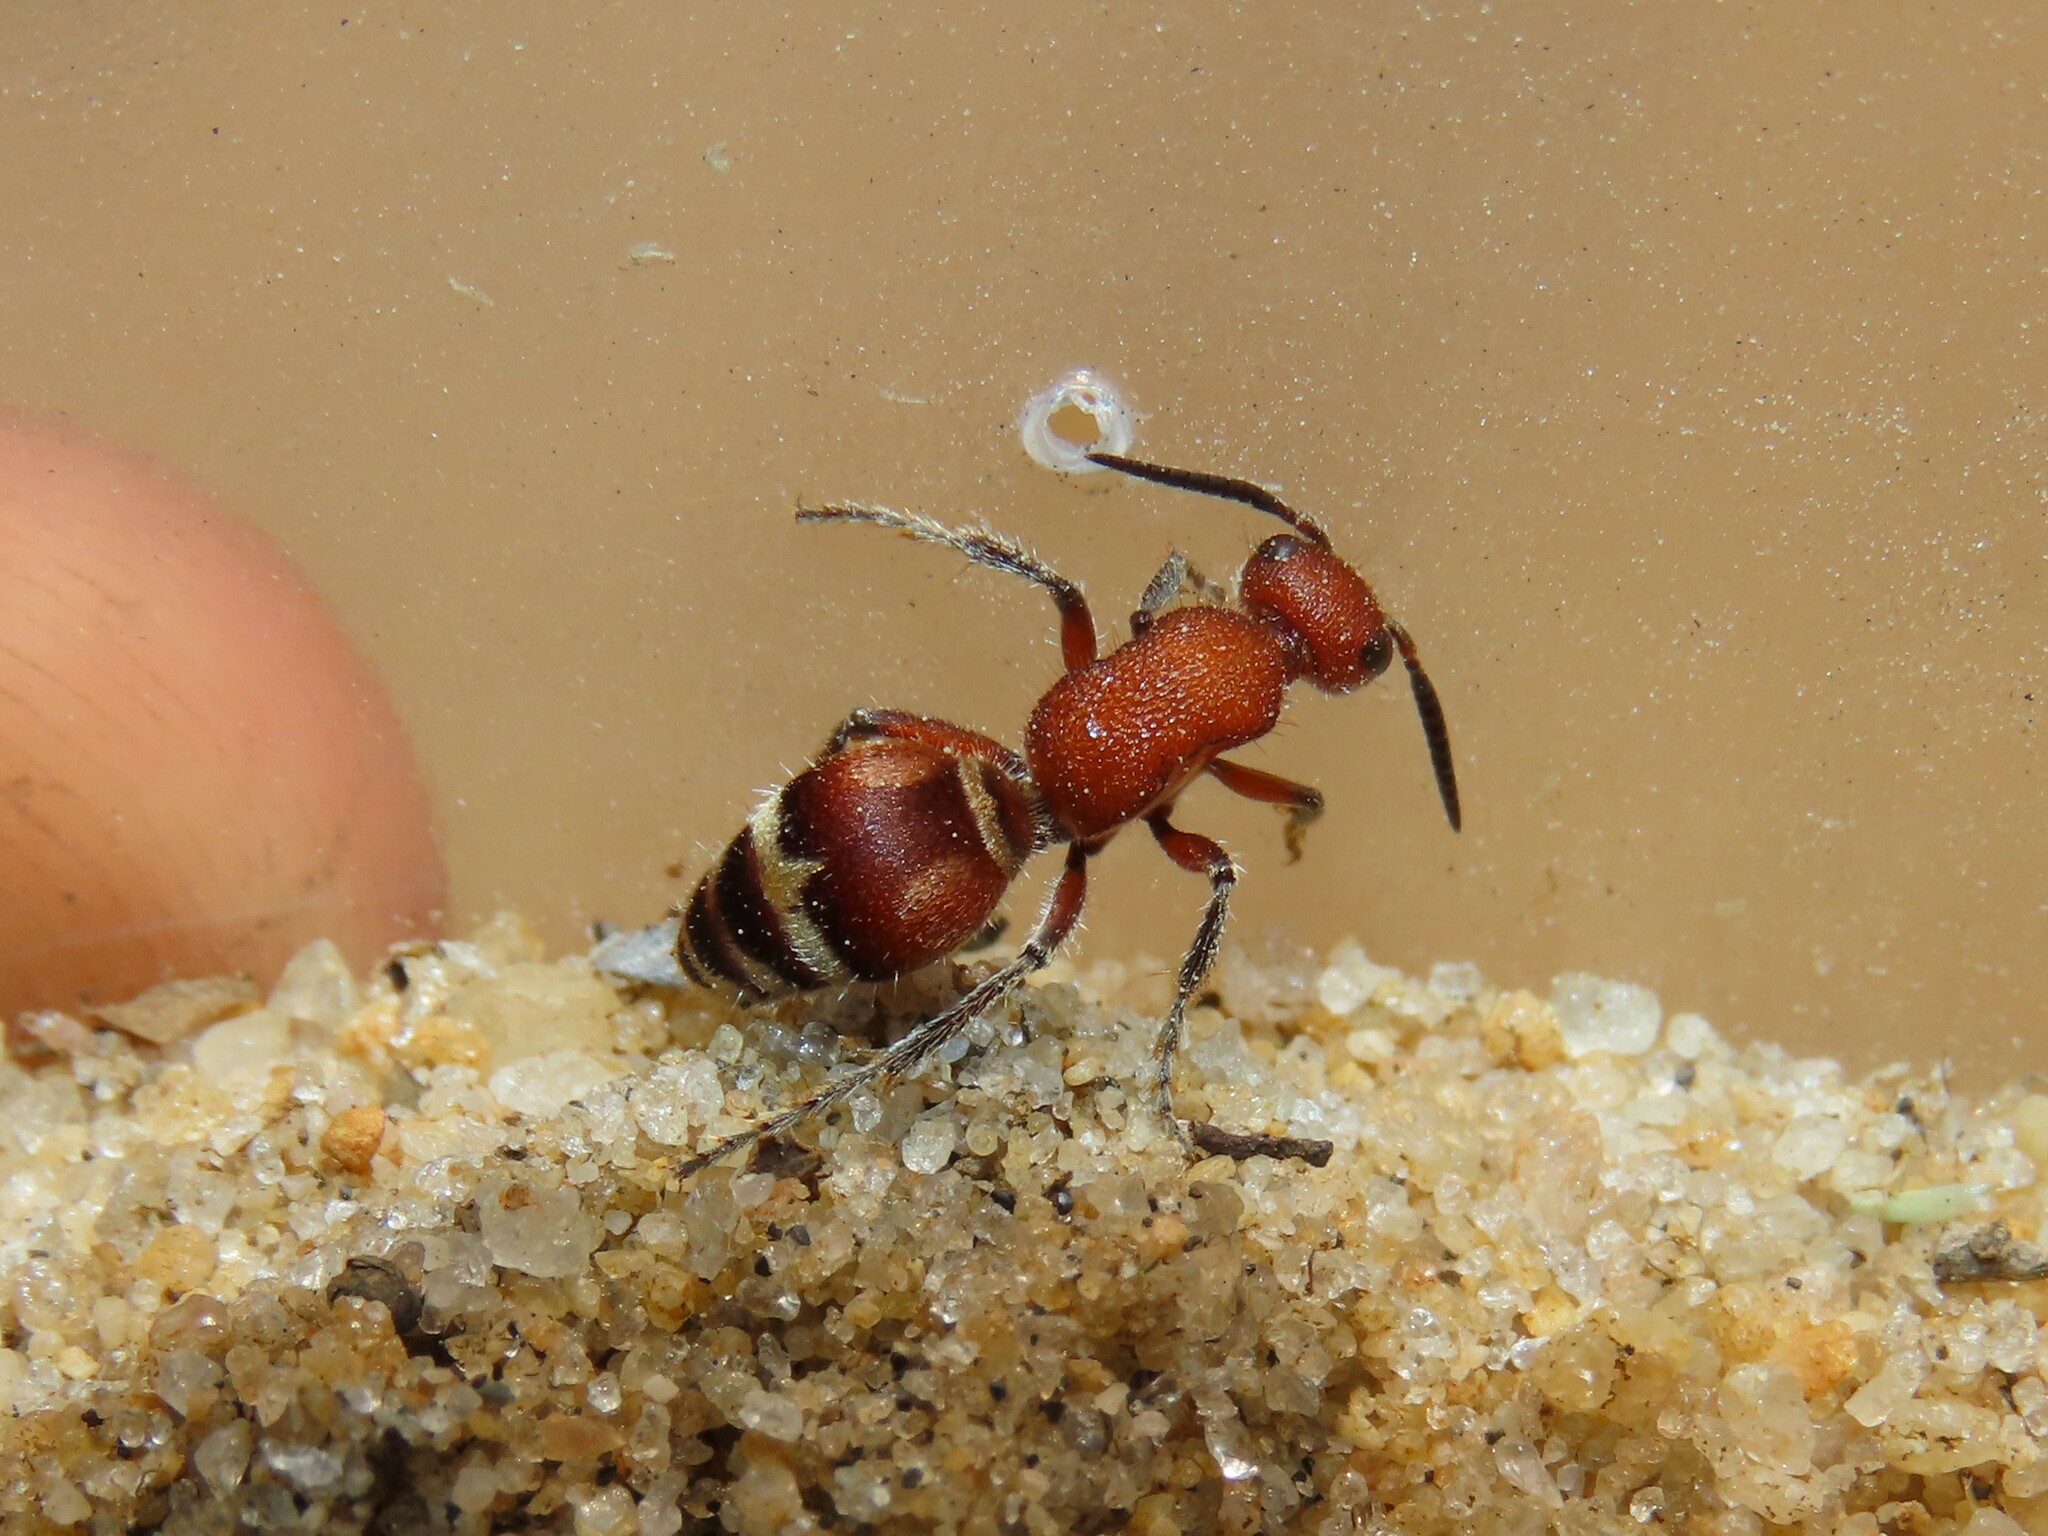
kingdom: Animalia
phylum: Arthropoda
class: Insecta
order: Hymenoptera
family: Mutillidae
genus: Timulla
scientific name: Timulla
